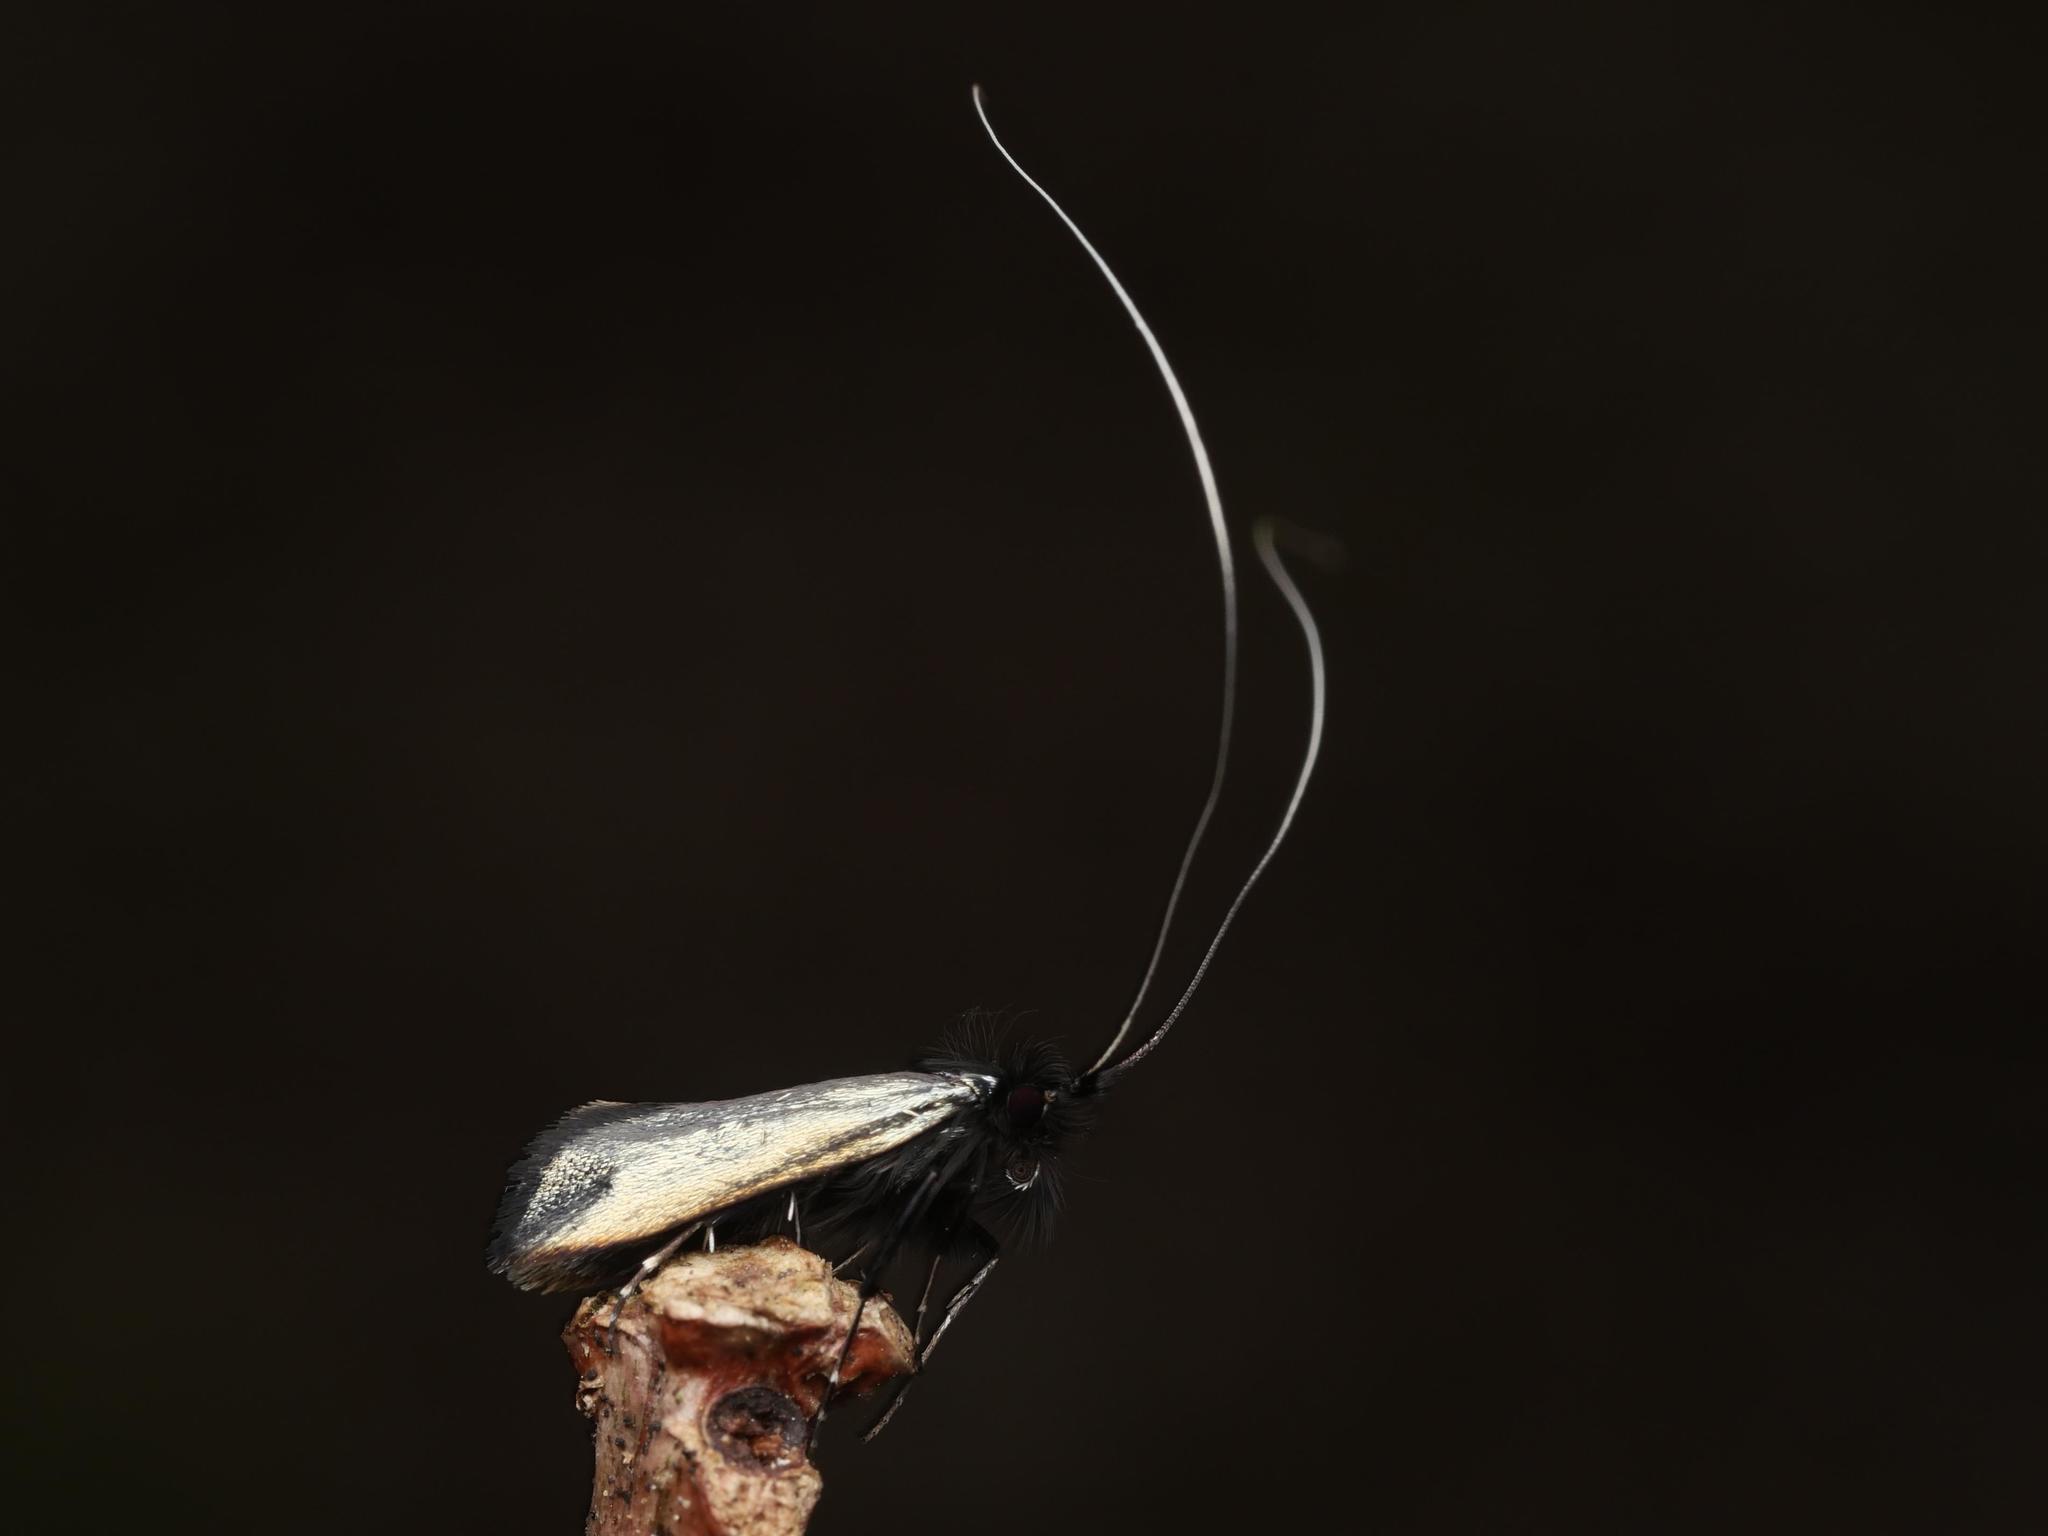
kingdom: Animalia
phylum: Arthropoda
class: Insecta
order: Lepidoptera
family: Adelidae
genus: Adela
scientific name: Adela viridella
